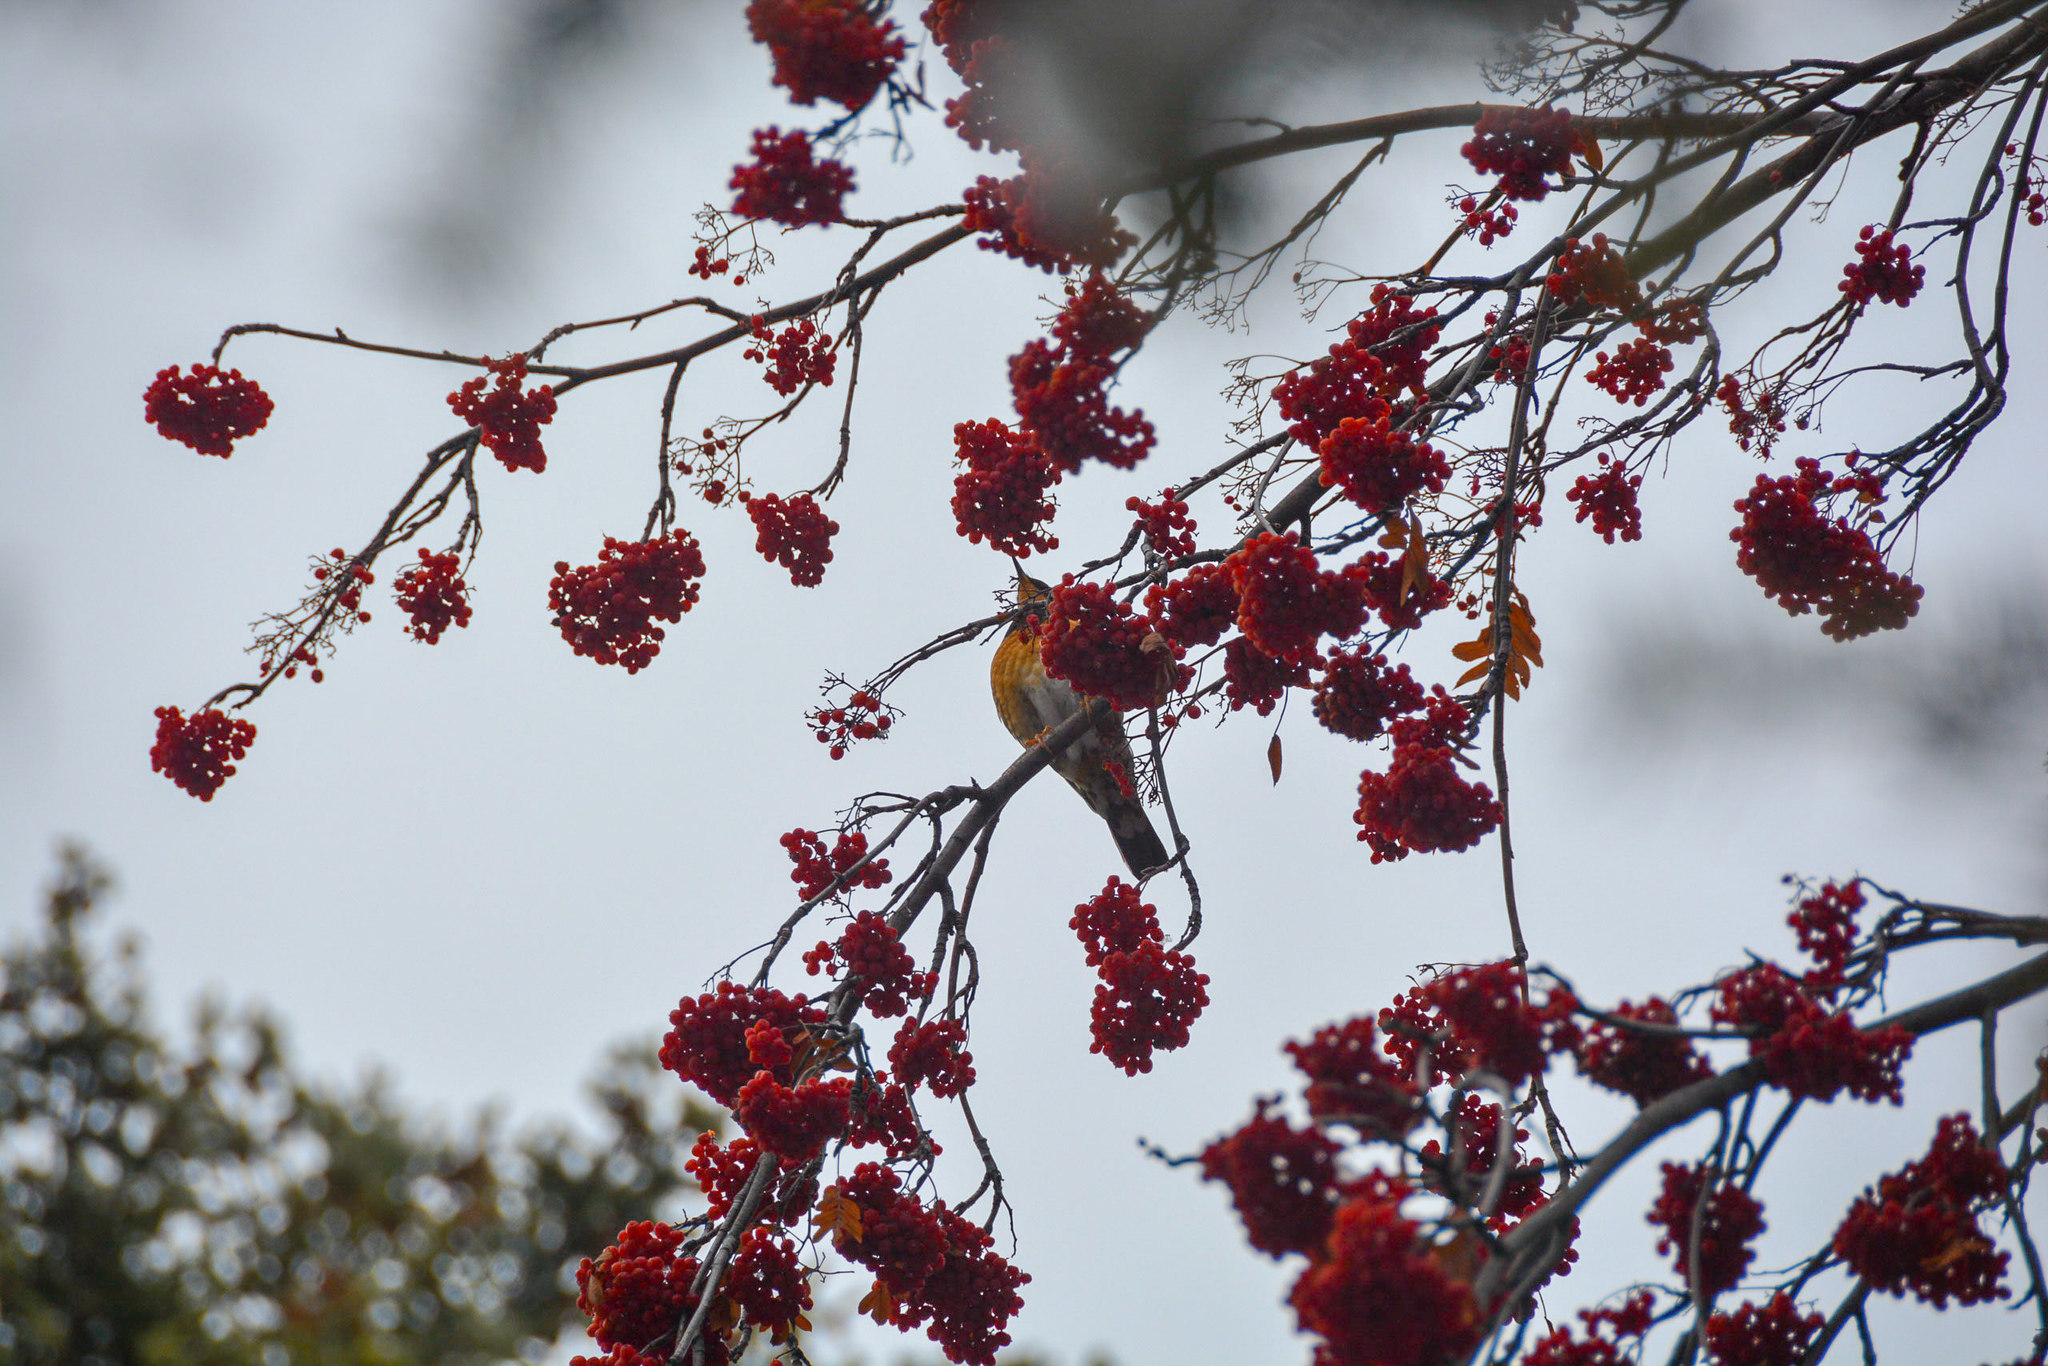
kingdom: Animalia
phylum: Chordata
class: Aves
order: Passeriformes
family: Turdidae
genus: Ixoreus
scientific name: Ixoreus naevius
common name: Varied thrush
